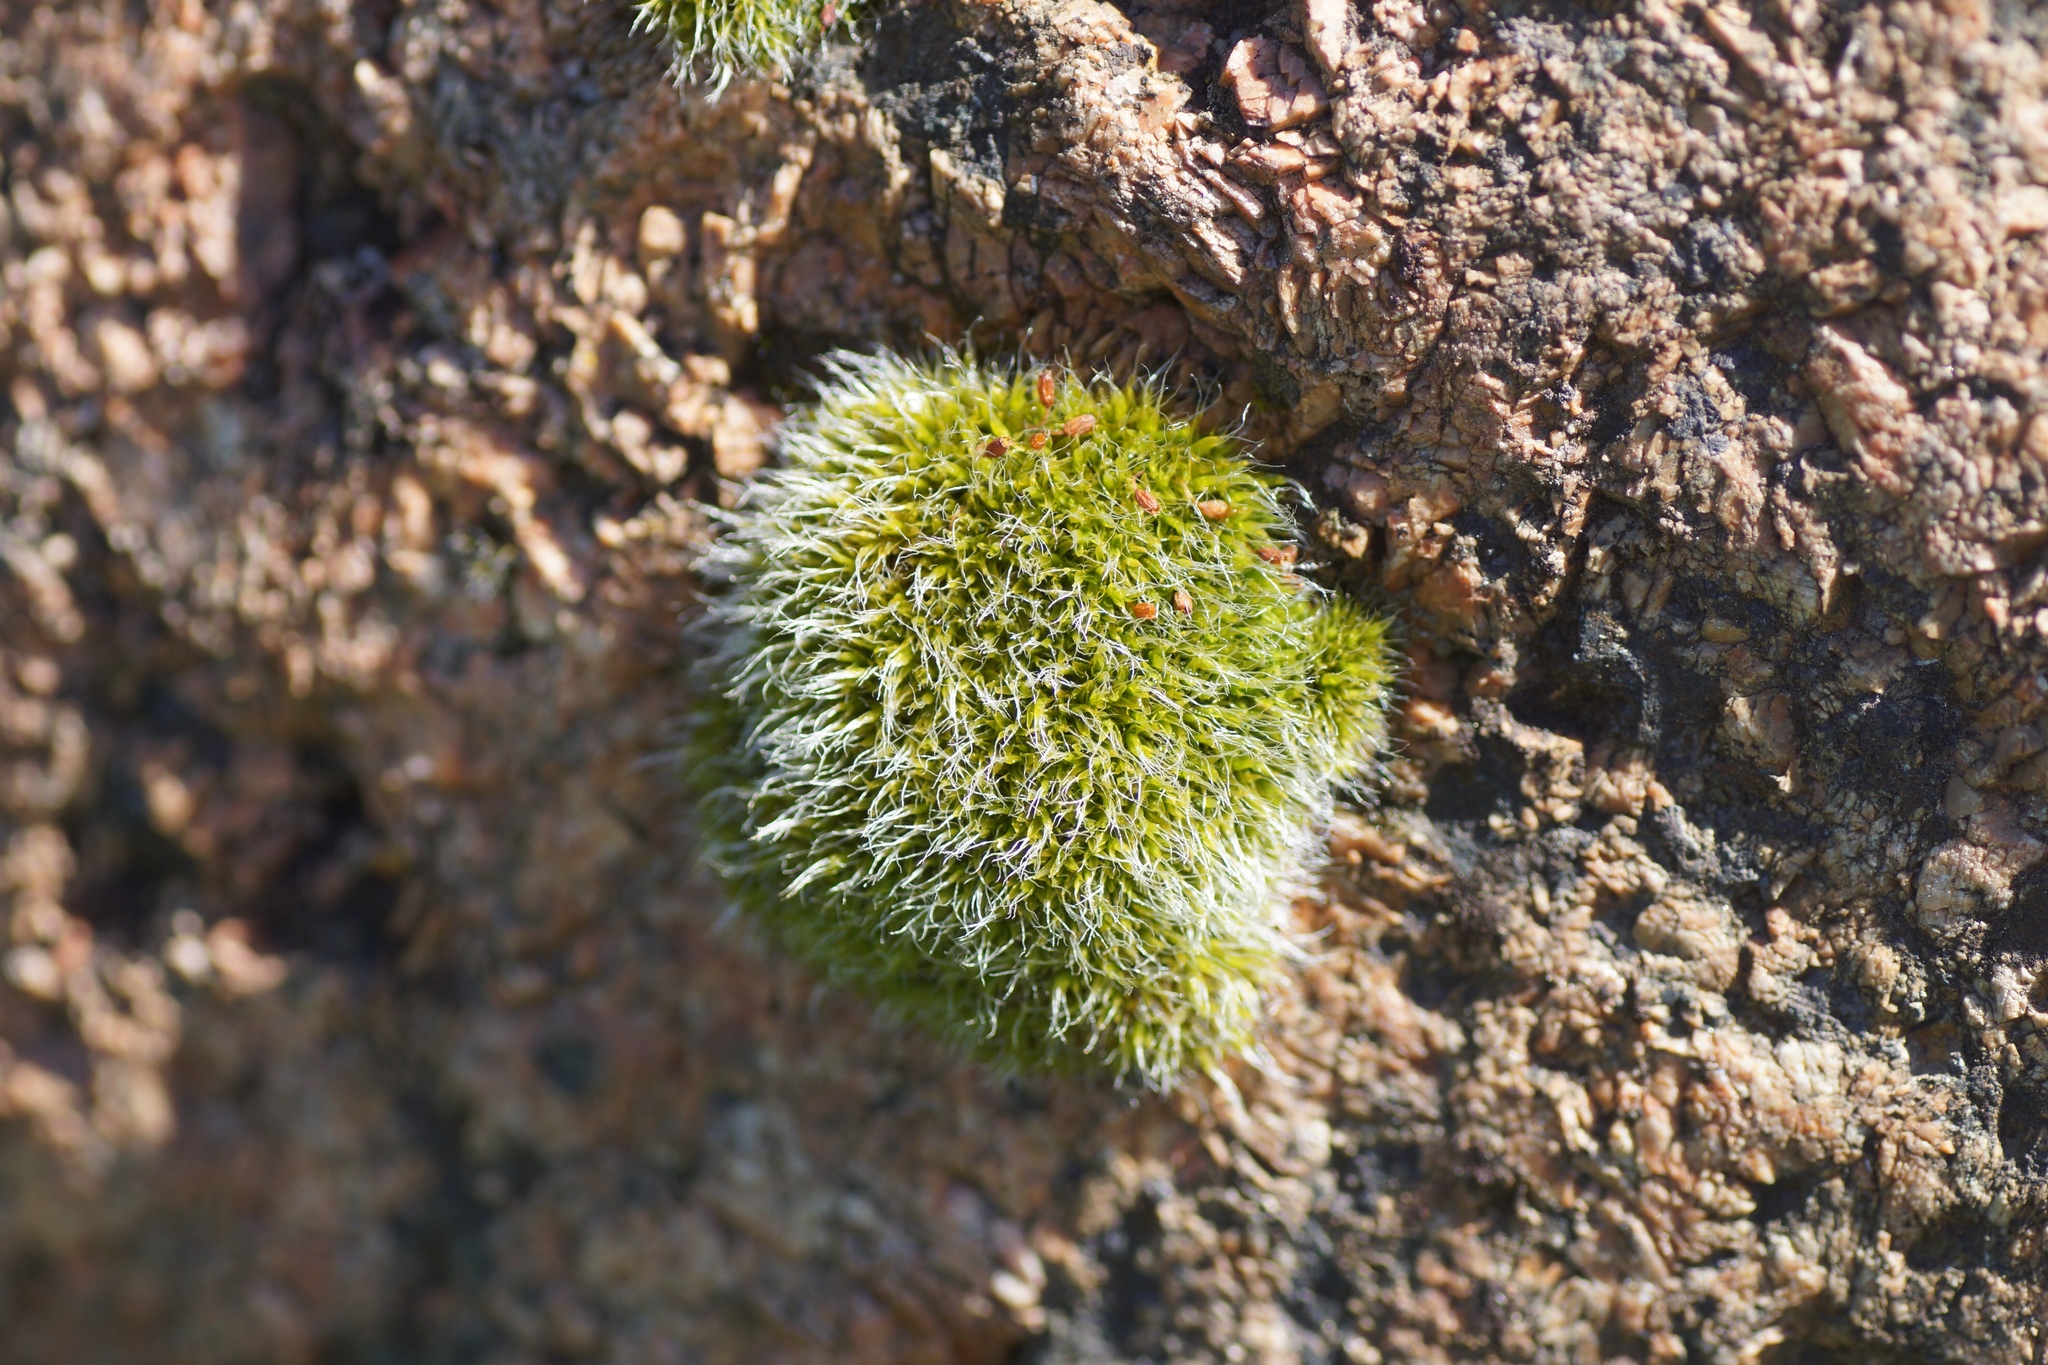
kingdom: Plantae
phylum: Bryophyta
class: Bryopsida
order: Grimmiales
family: Grimmiaceae
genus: Grimmia
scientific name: Grimmia pulvinata
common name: Grey-cushioned grimmia
